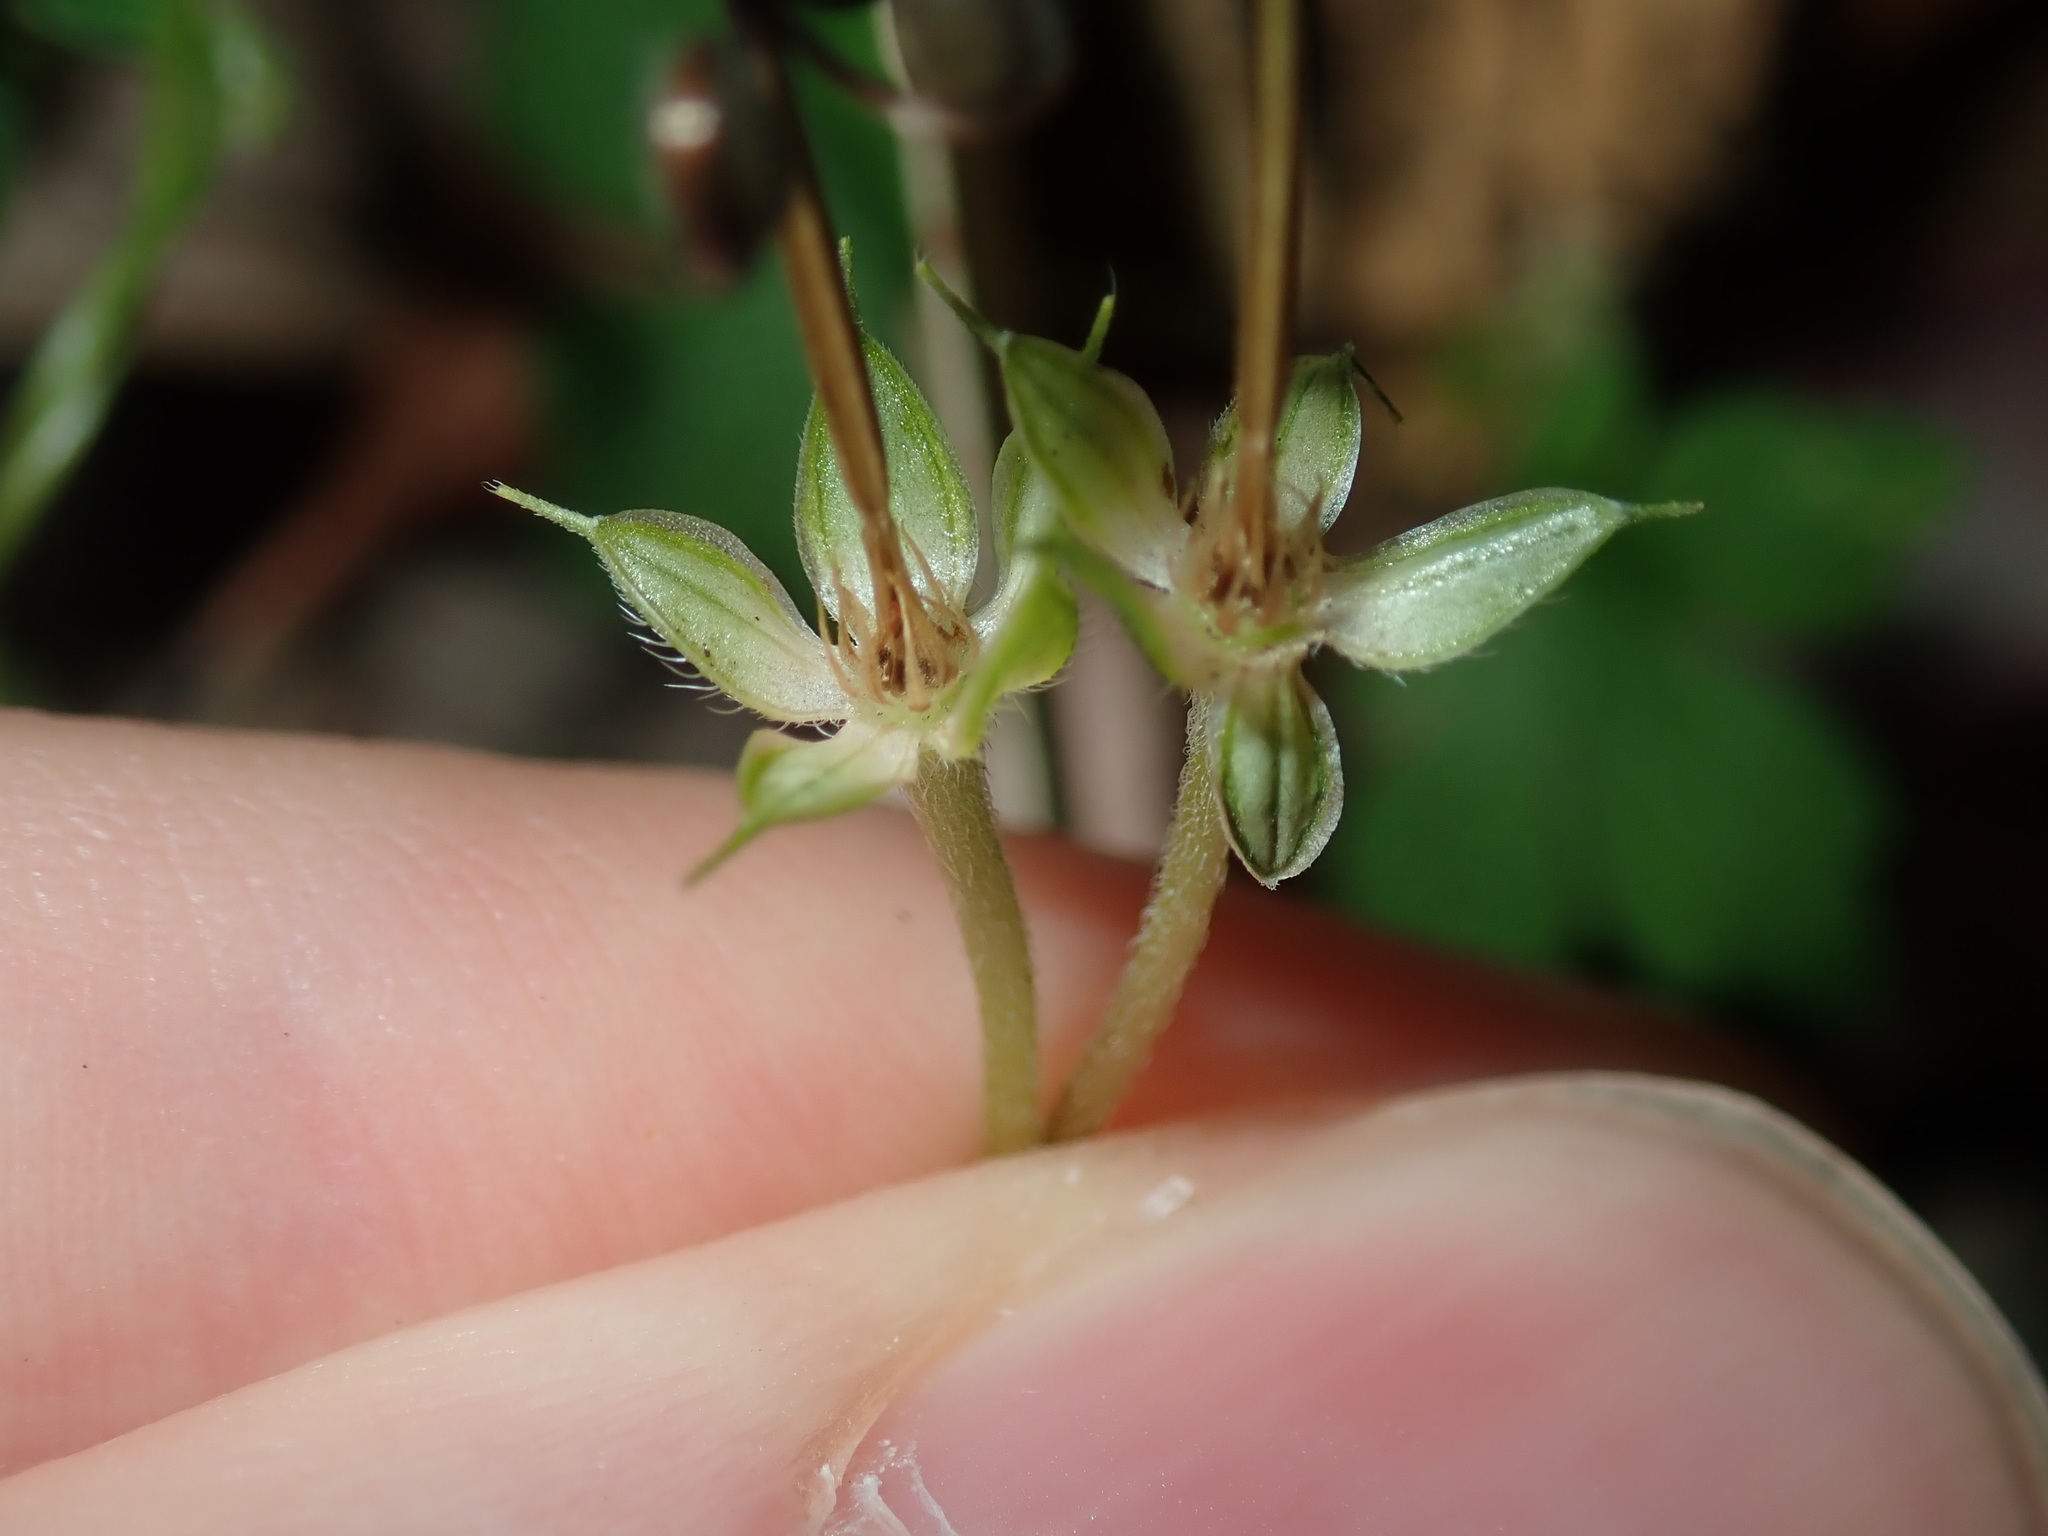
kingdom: Plantae
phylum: Tracheophyta
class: Magnoliopsida
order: Geraniales
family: Geraniaceae
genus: Geranium
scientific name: Geranium homeanum
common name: Australasian geranium
